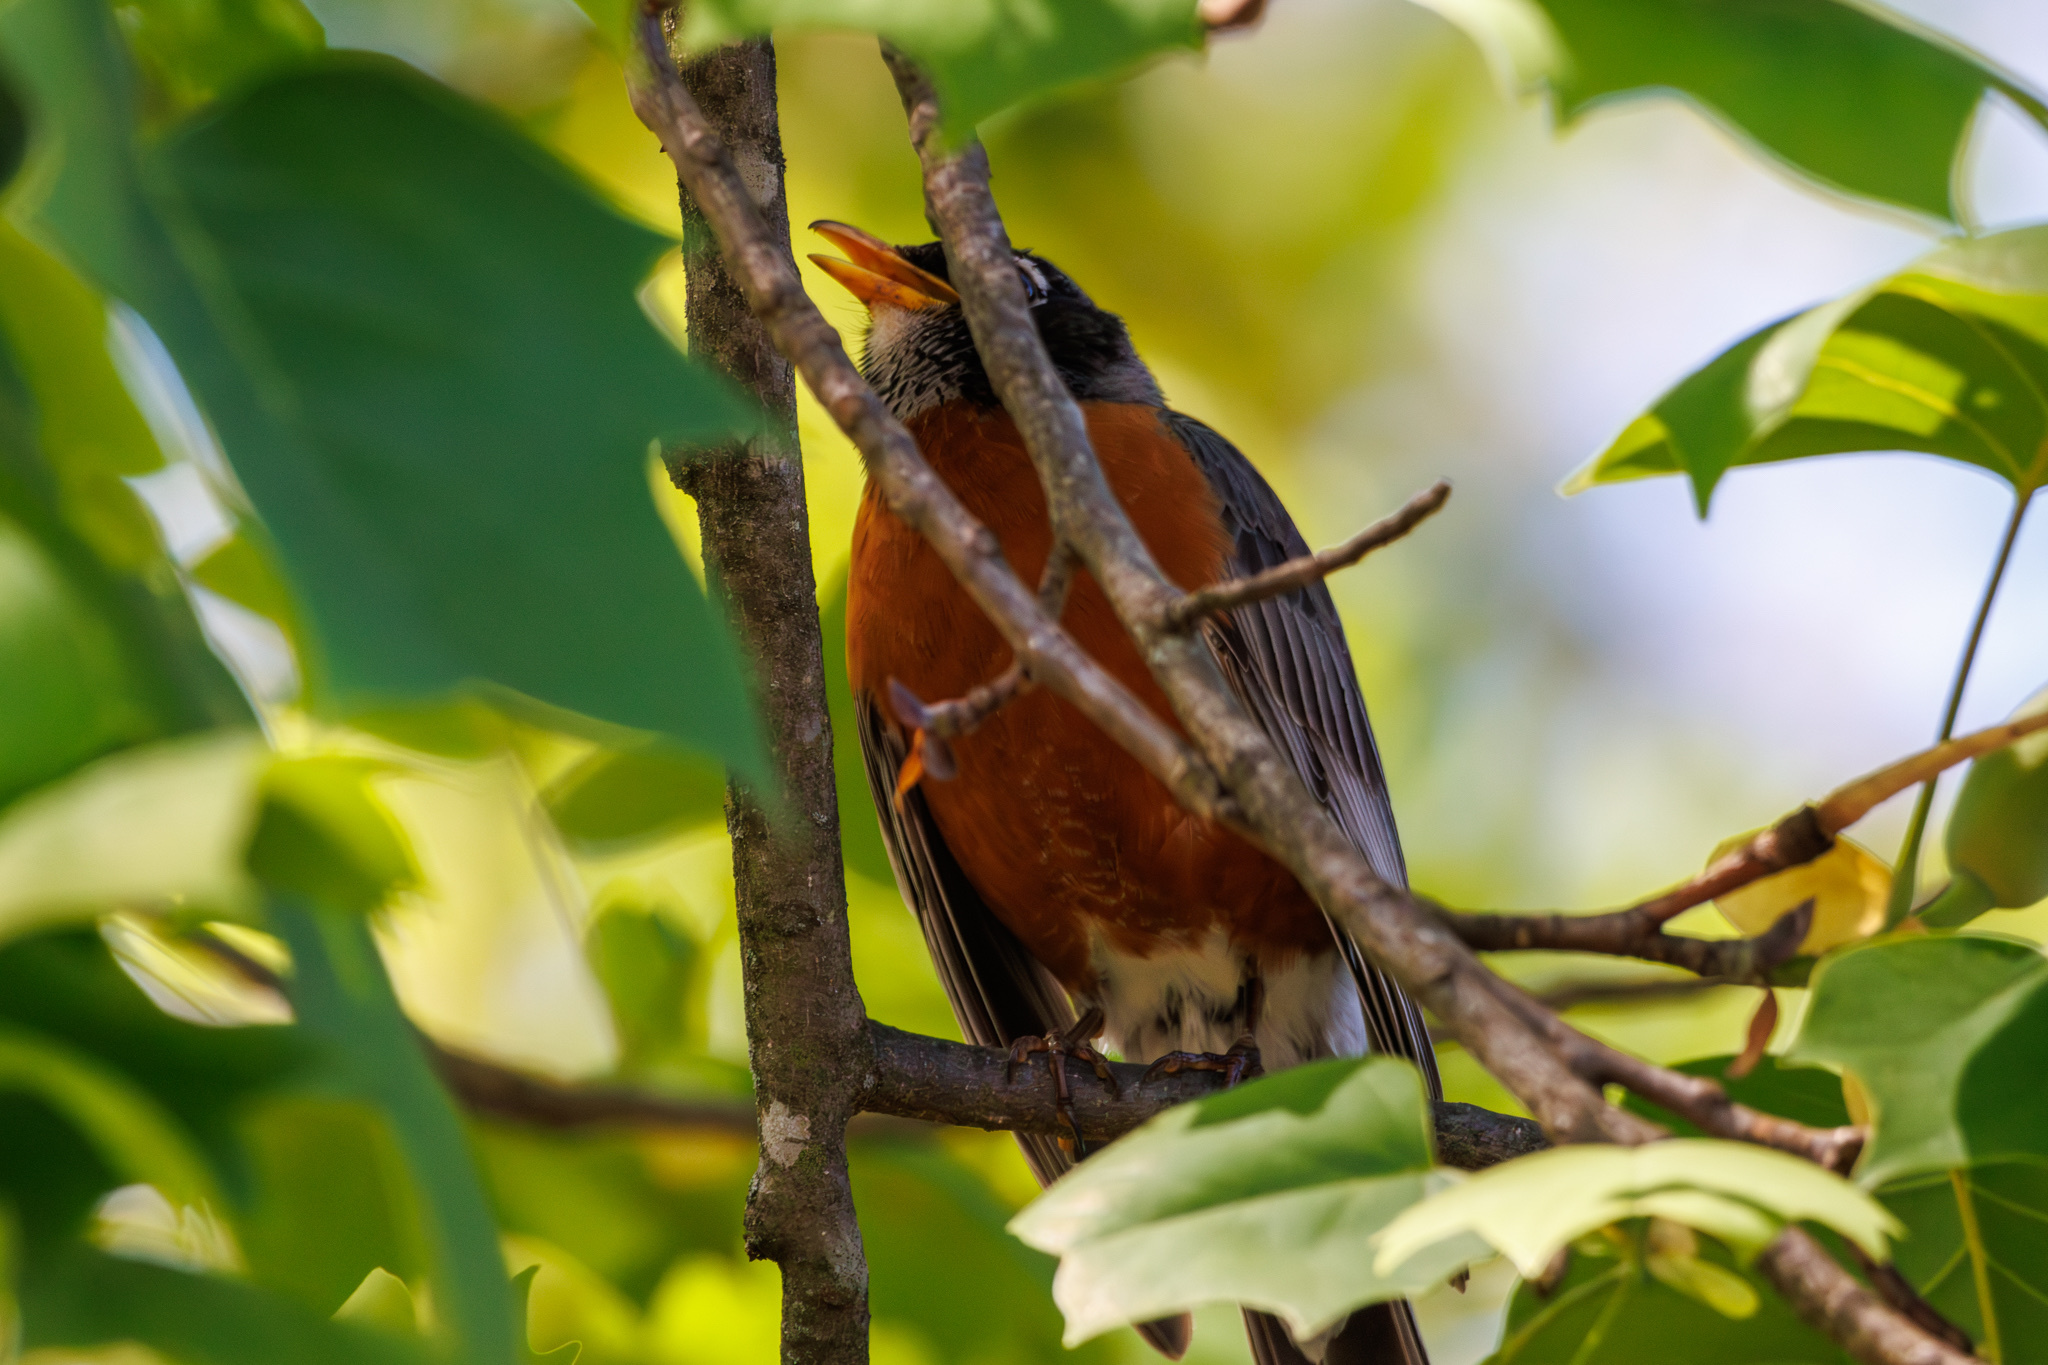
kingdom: Animalia
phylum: Chordata
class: Aves
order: Passeriformes
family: Turdidae
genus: Turdus
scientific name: Turdus migratorius
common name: American robin
